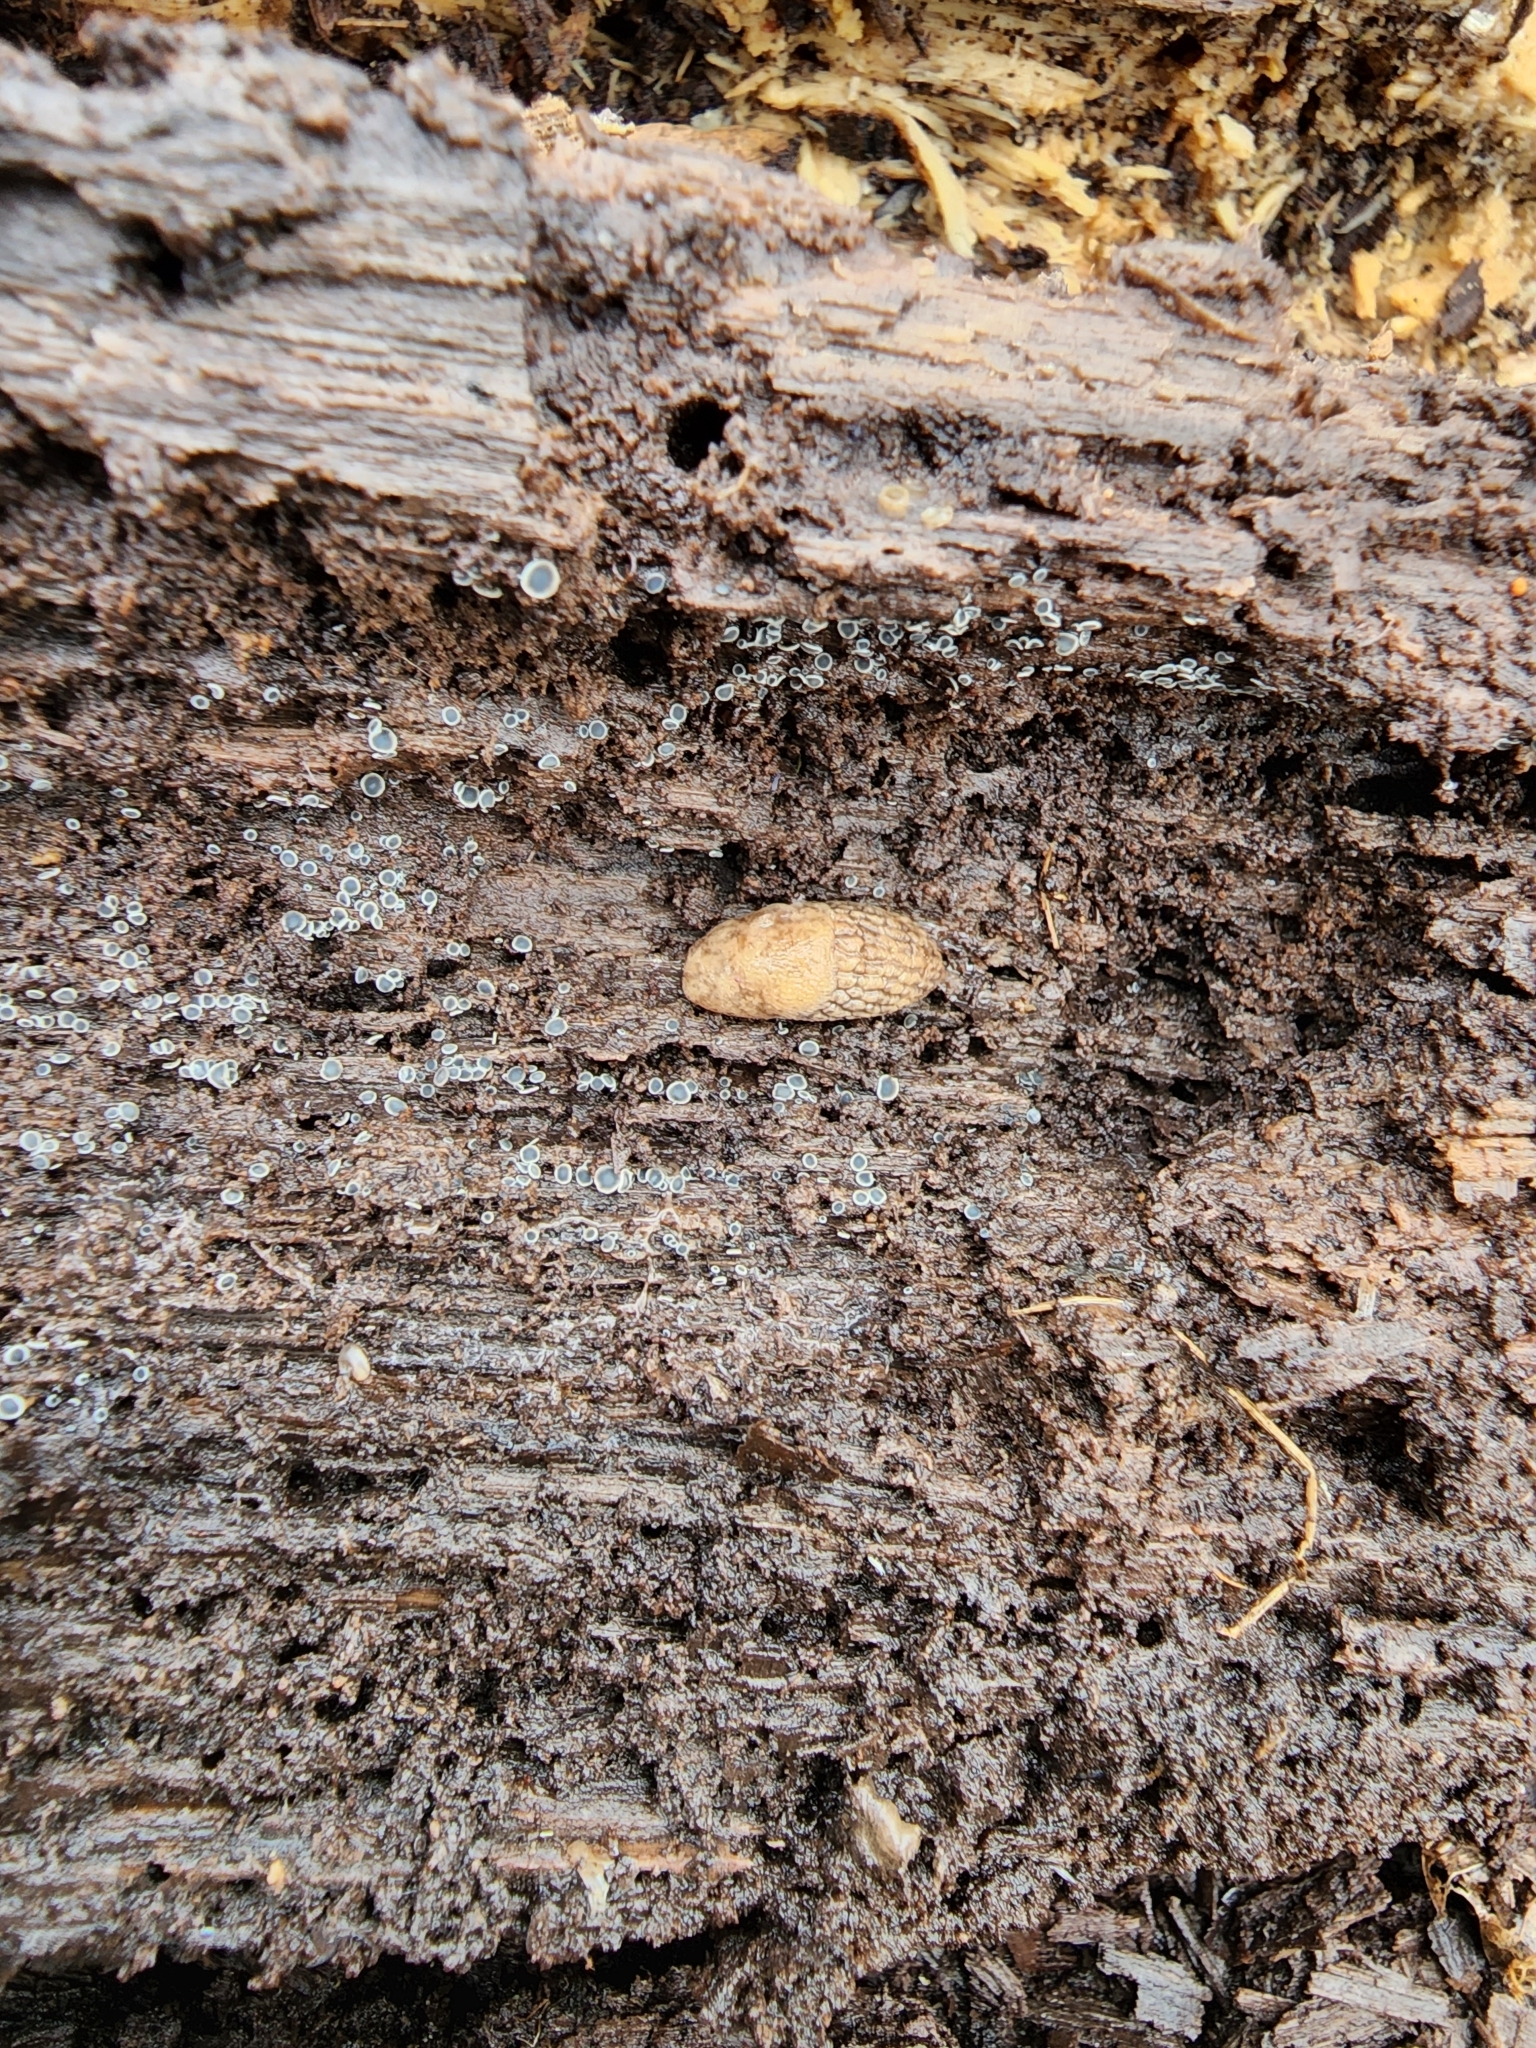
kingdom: Animalia
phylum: Mollusca
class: Gastropoda
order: Stylommatophora
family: Agriolimacidae
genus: Deroceras
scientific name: Deroceras reticulatum
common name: Gray field slug
